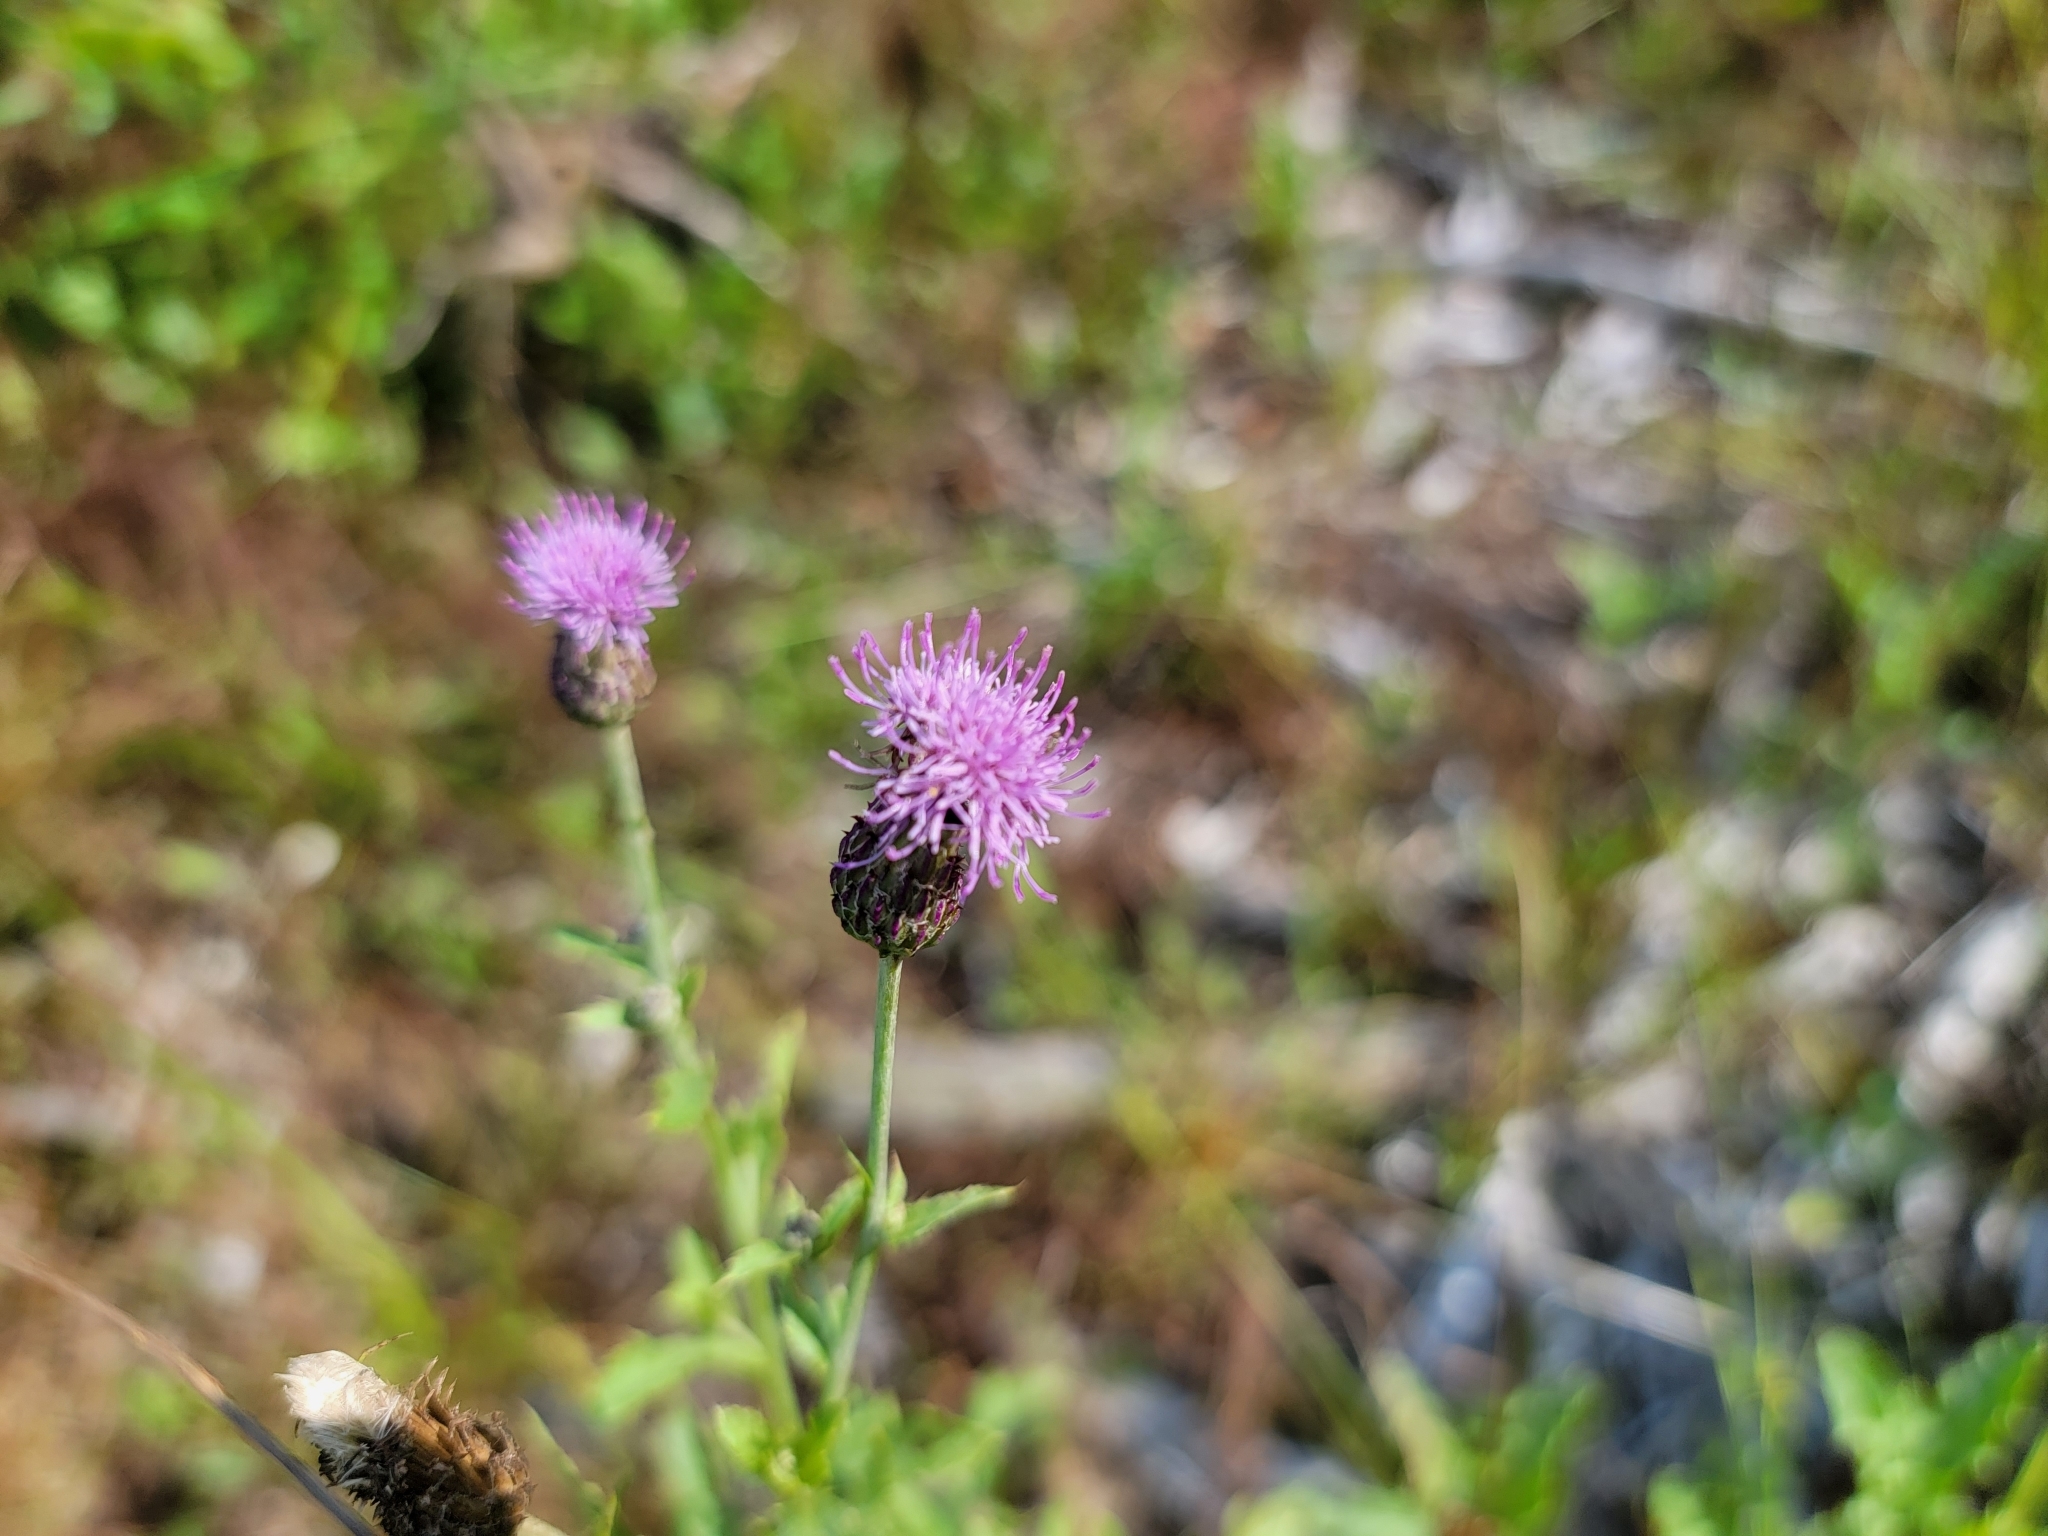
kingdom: Plantae
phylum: Tracheophyta
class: Magnoliopsida
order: Asterales
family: Asteraceae
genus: Cirsium
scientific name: Cirsium arvense
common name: Creeping thistle
